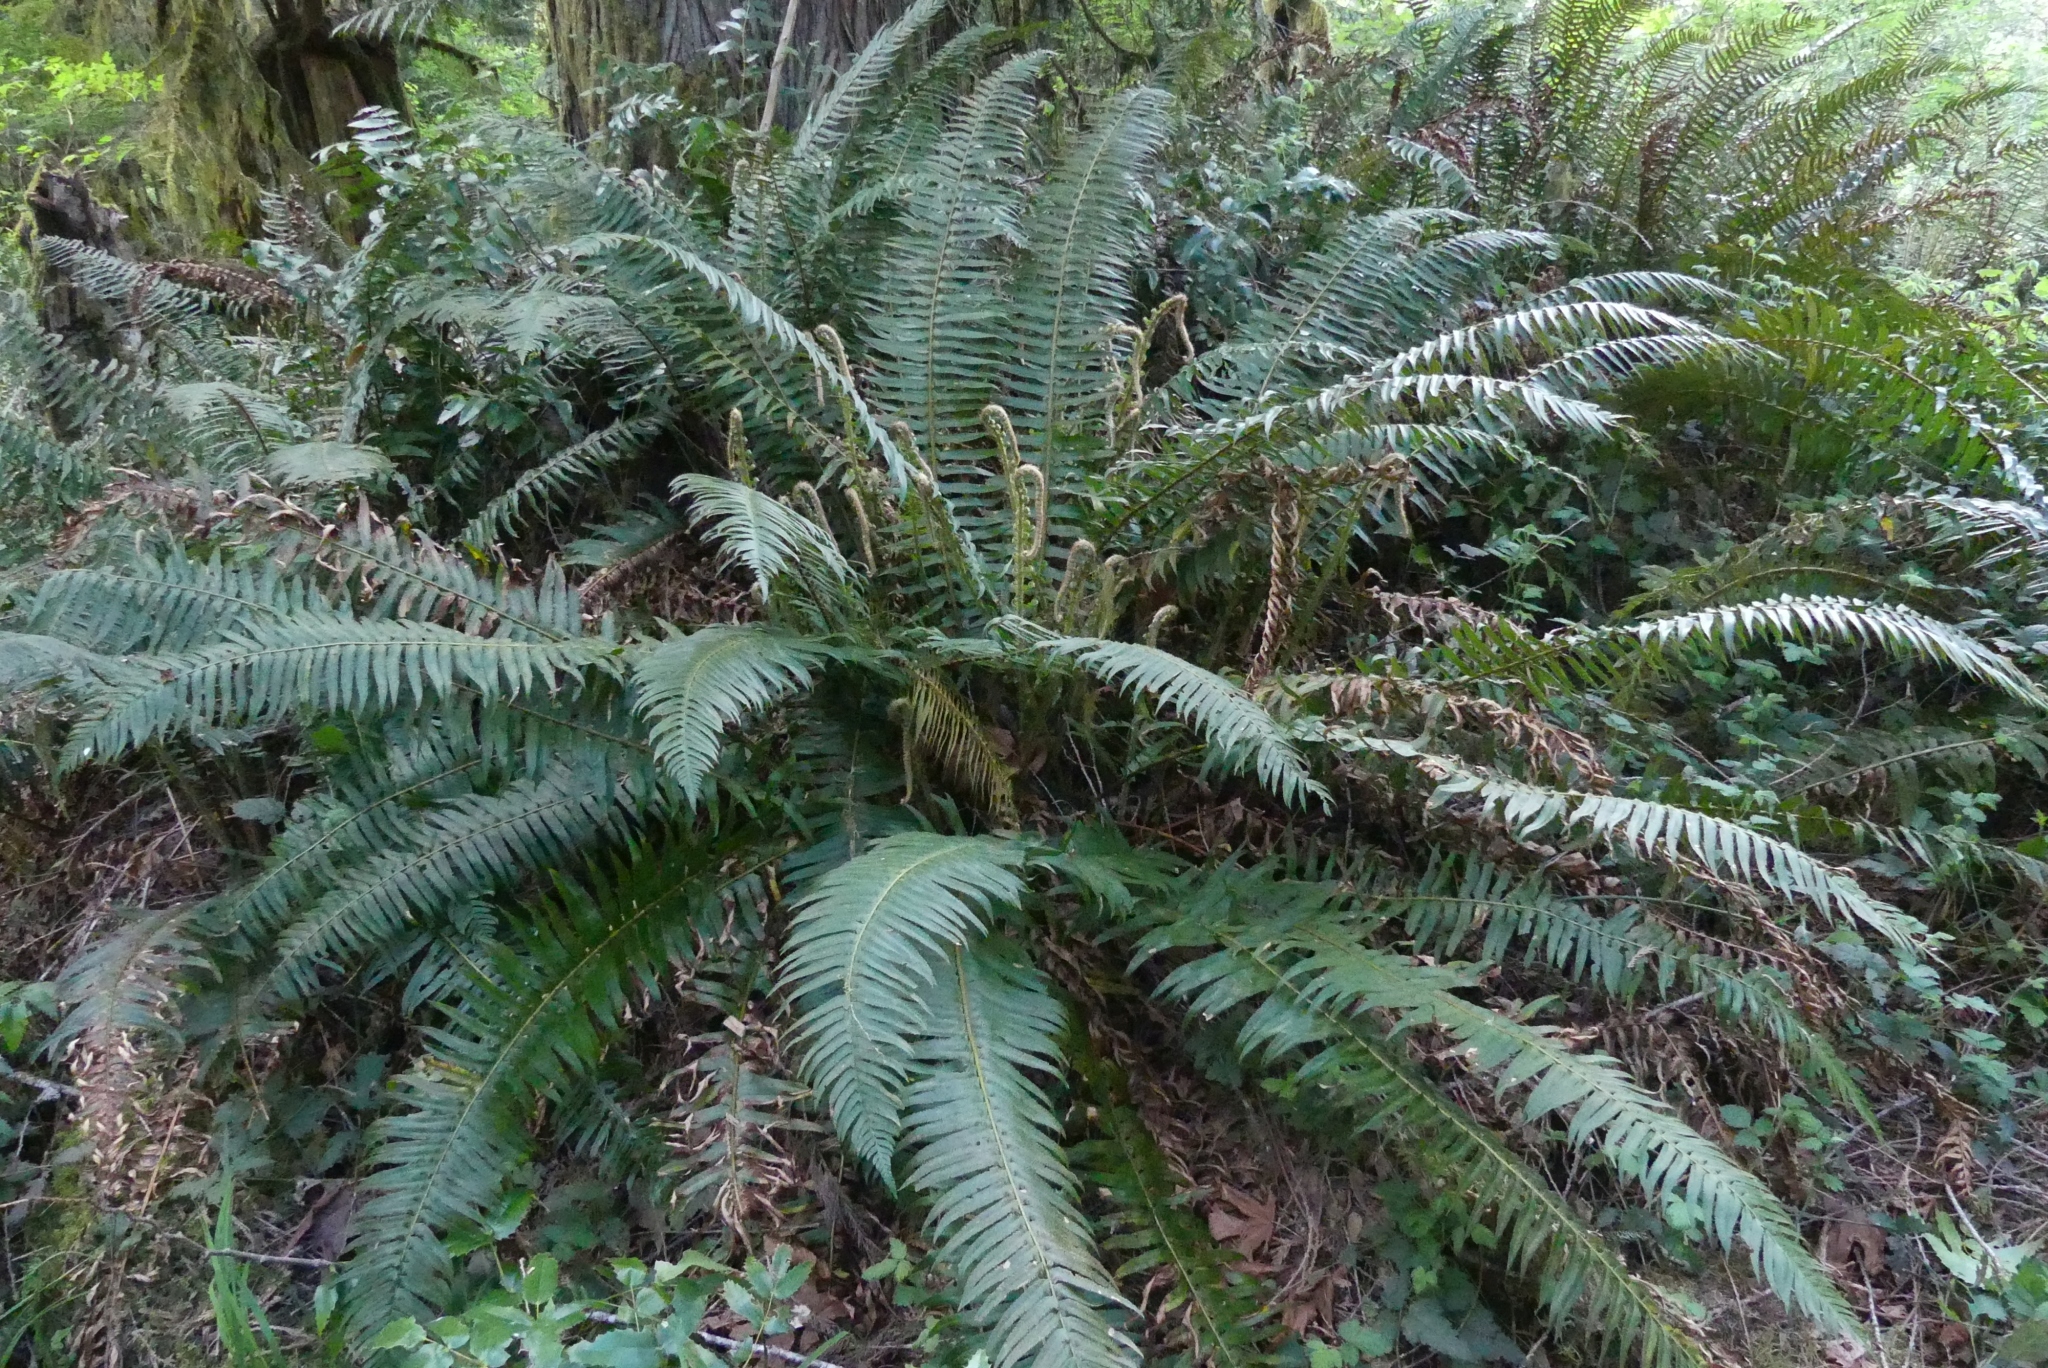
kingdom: Plantae
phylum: Tracheophyta
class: Polypodiopsida
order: Polypodiales
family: Dryopteridaceae
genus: Polystichum
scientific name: Polystichum munitum
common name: Western sword-fern
